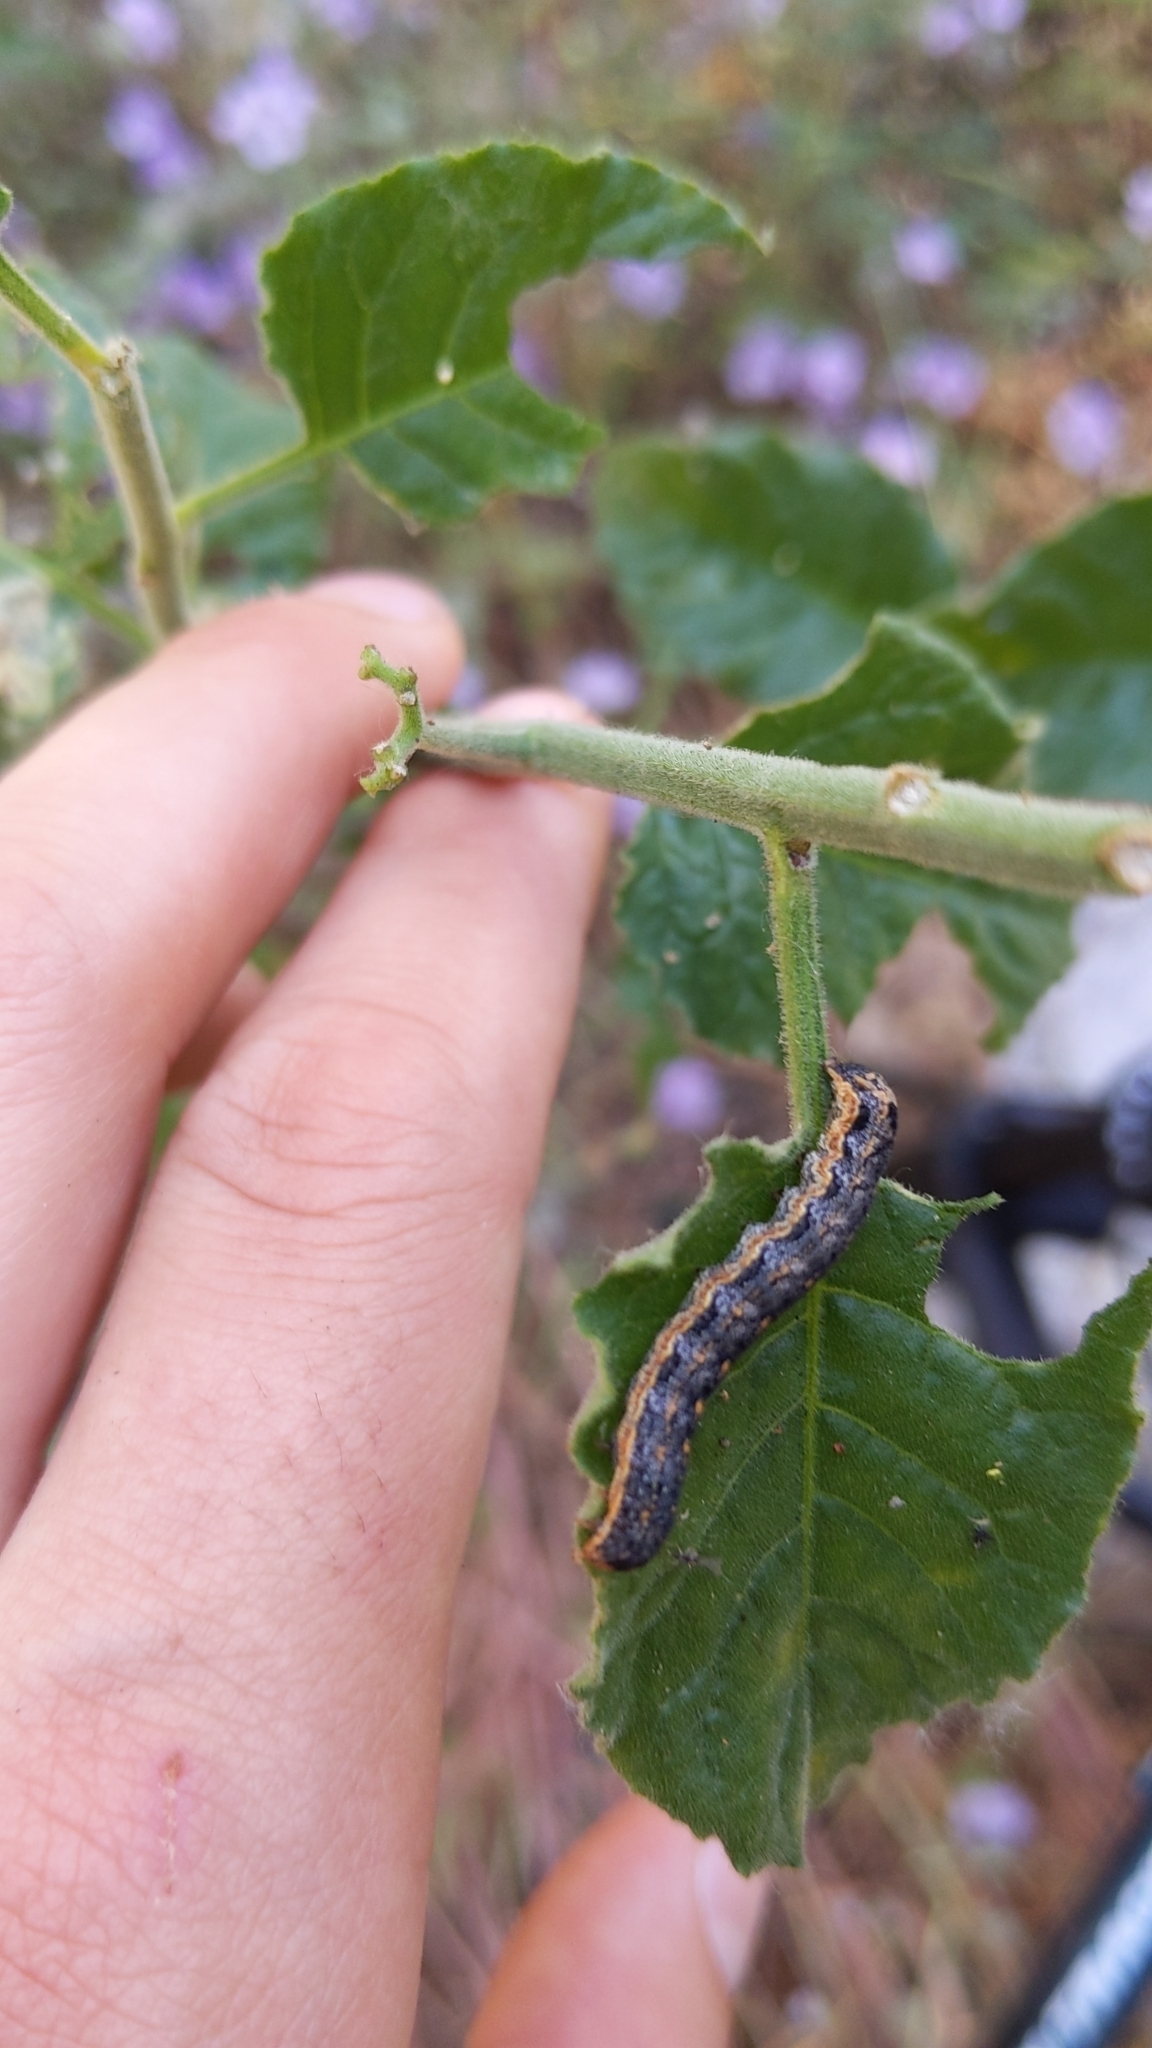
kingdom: Animalia
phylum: Arthropoda
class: Insecta
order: Lepidoptera
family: Noctuidae
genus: Peridroma
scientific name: Peridroma saucia
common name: Pearly underwing
